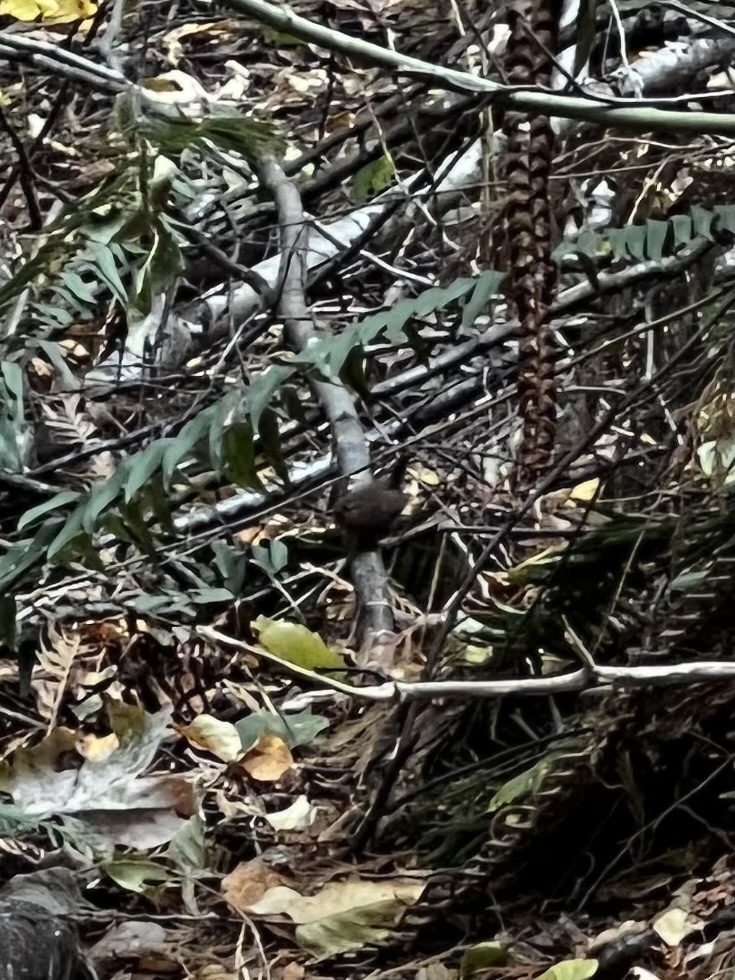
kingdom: Animalia
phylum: Chordata
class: Aves
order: Passeriformes
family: Troglodytidae
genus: Troglodytes
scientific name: Troglodytes pacificus
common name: Pacific wren
